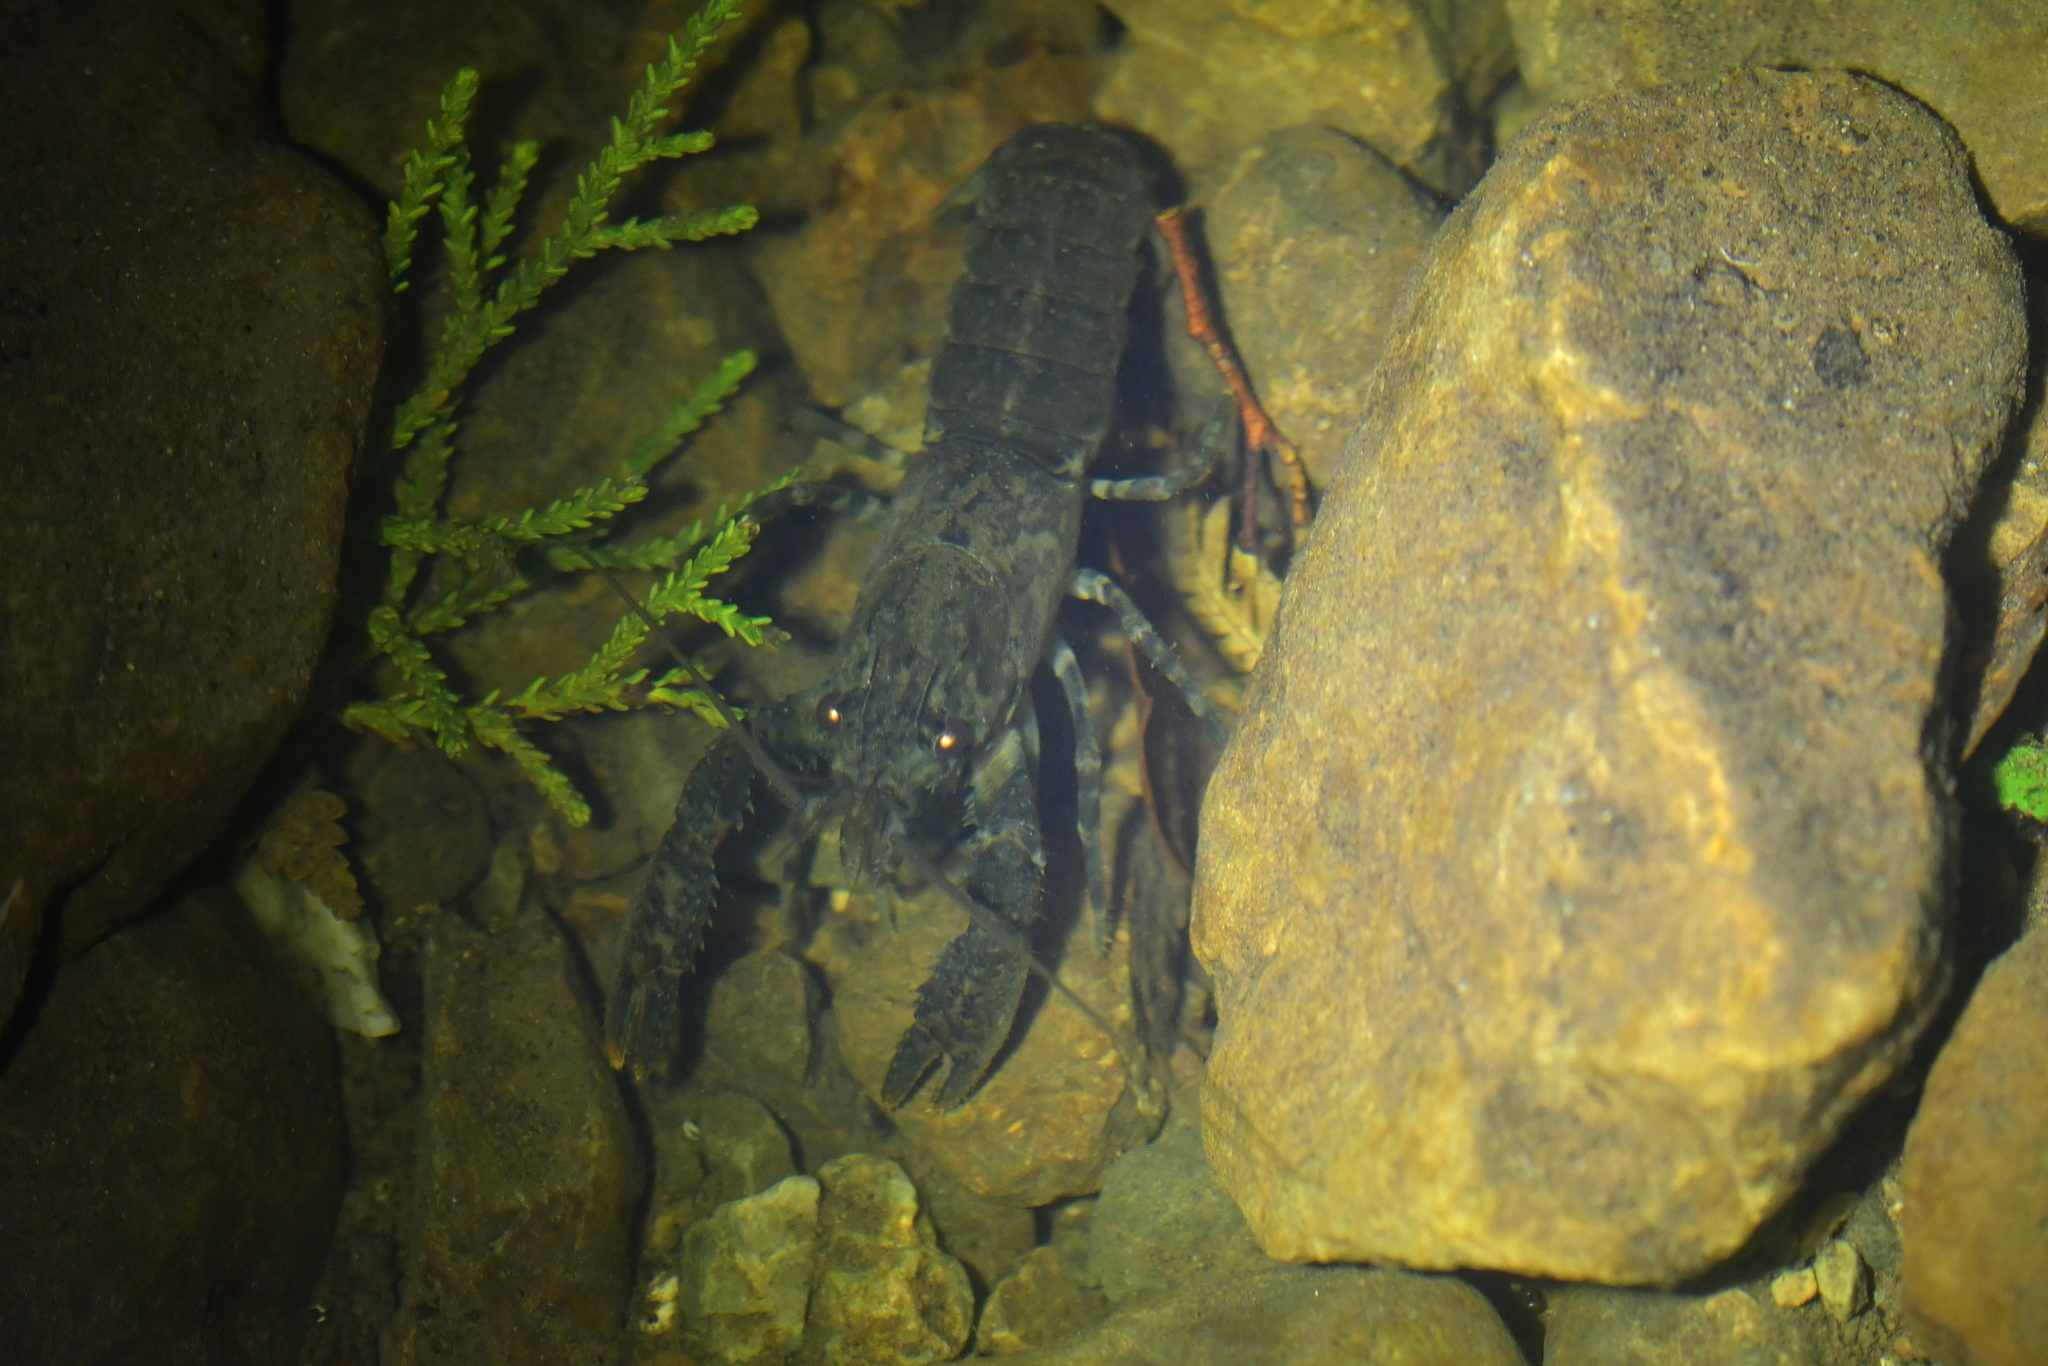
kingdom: Animalia
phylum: Arthropoda
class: Malacostraca
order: Decapoda
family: Parastacidae
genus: Paranephrops
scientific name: Paranephrops planifrons
